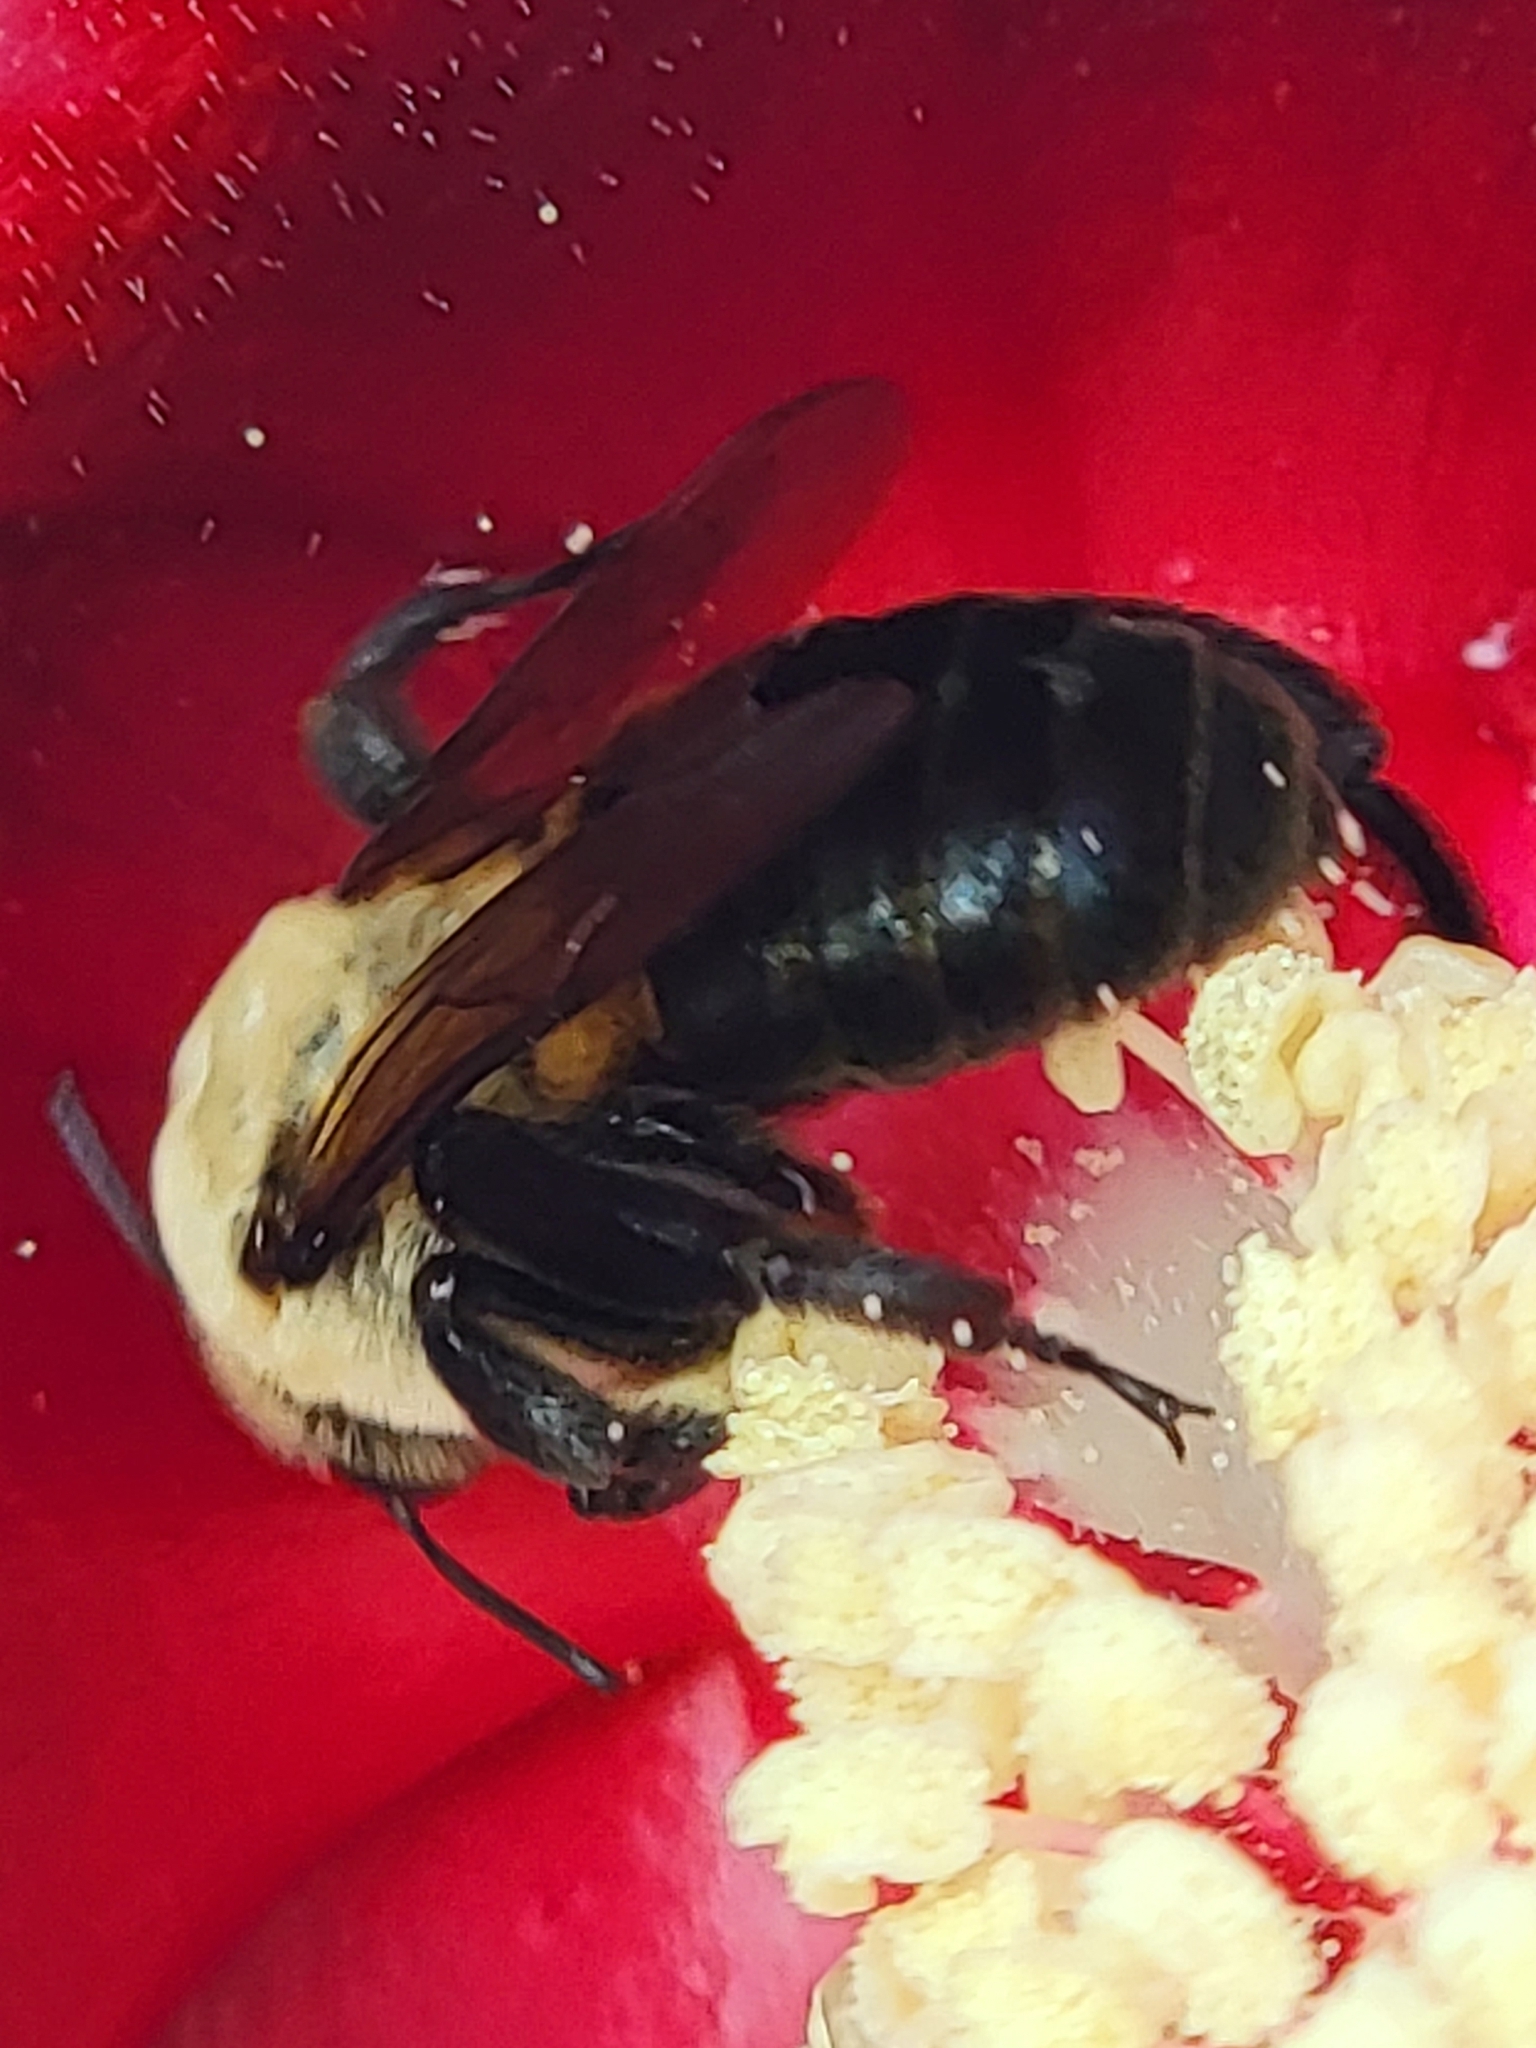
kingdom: Animalia
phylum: Arthropoda
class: Insecta
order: Hymenoptera
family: Apidae
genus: Ptilothrix
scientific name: Ptilothrix bombiformis
